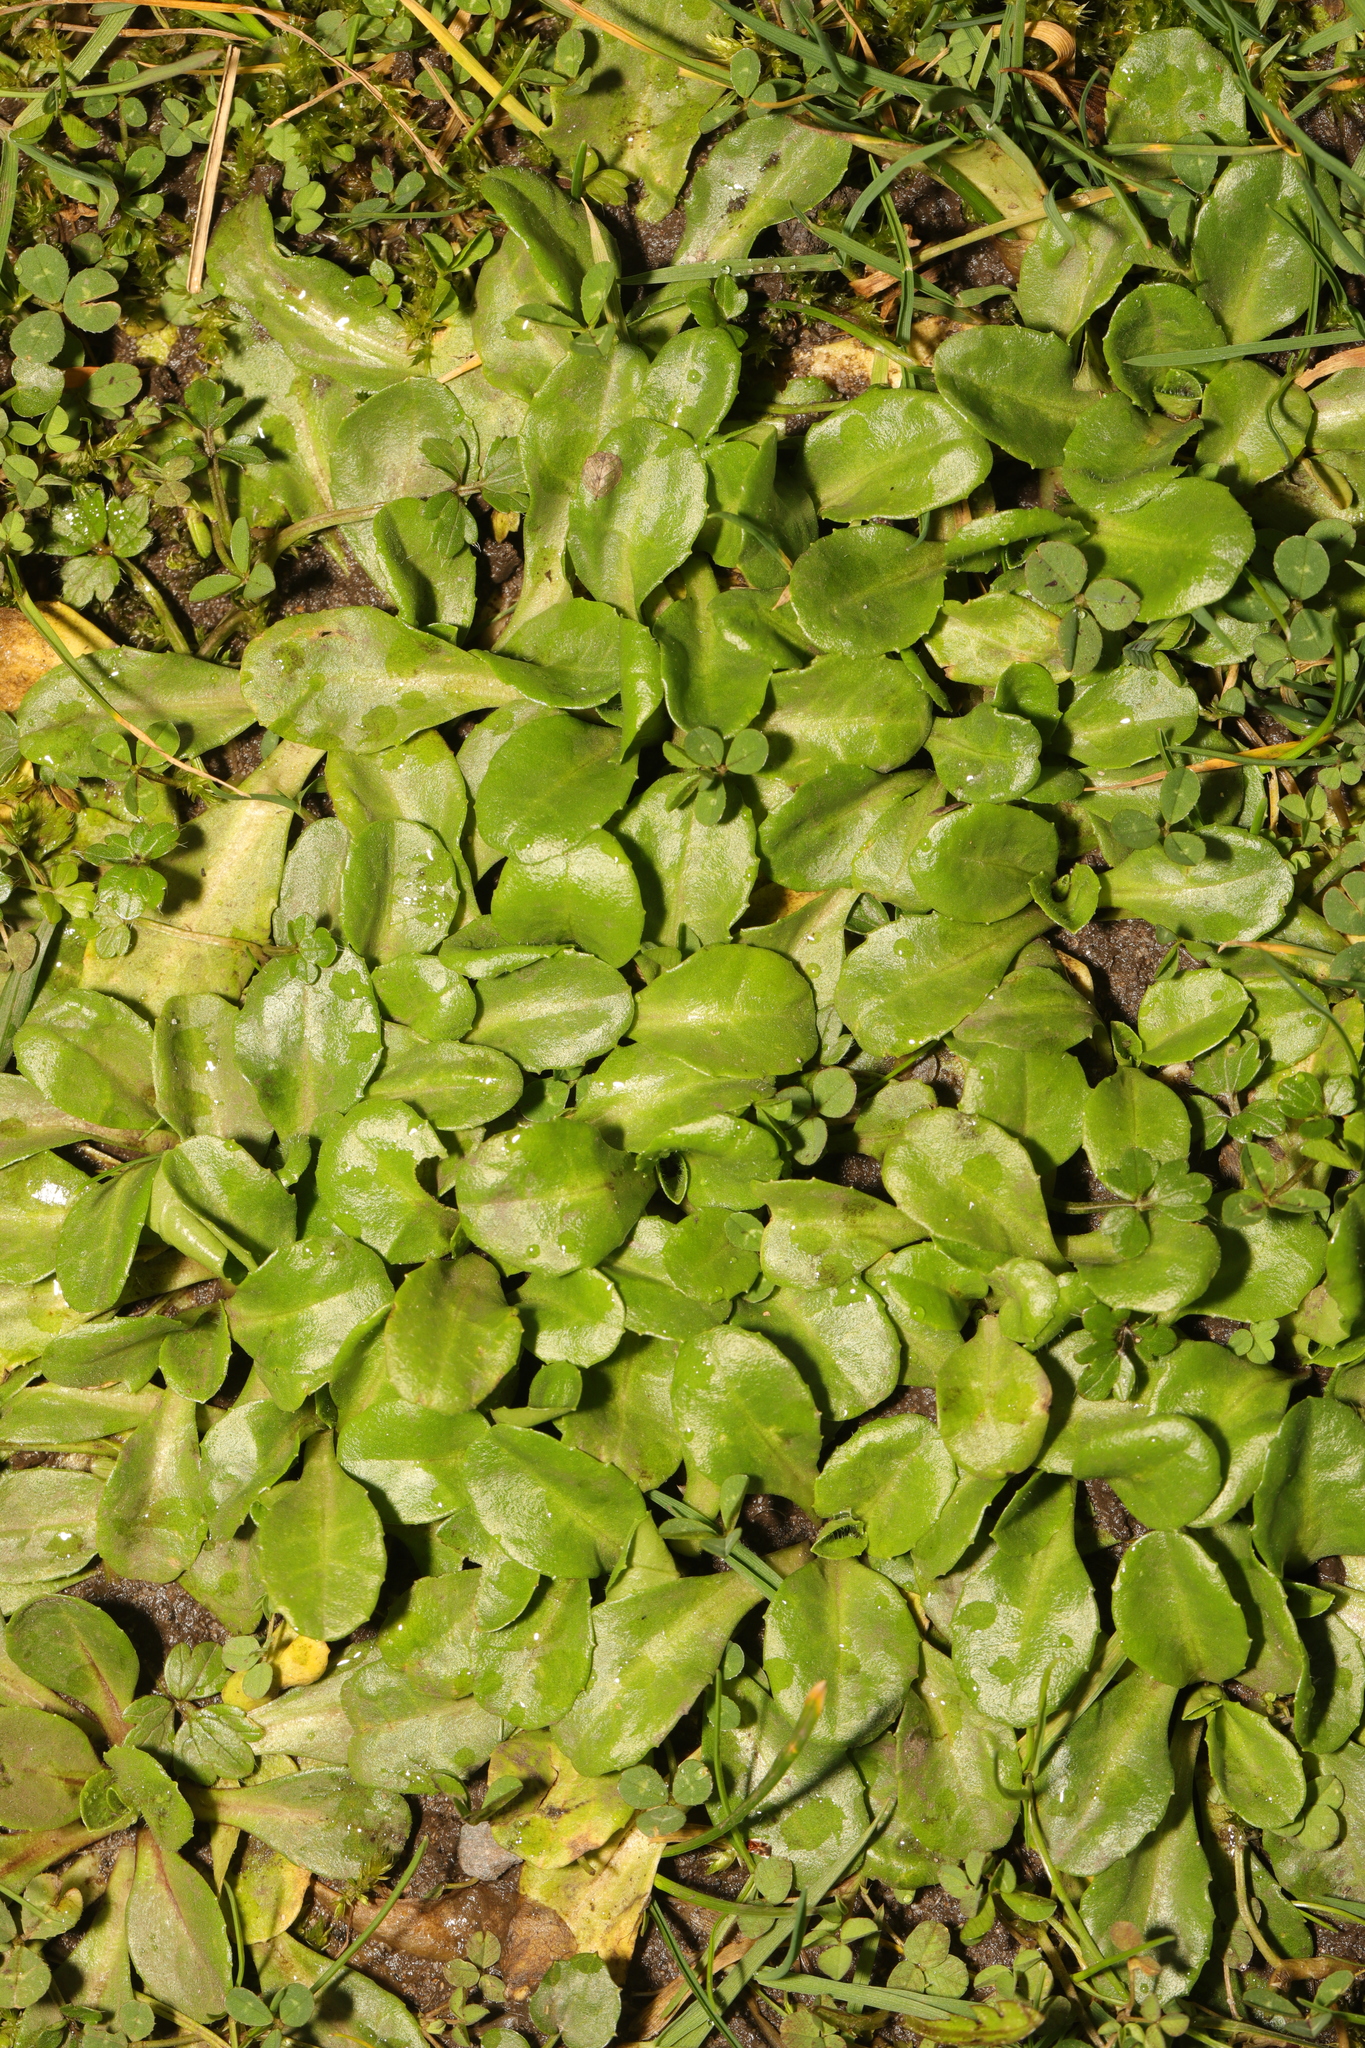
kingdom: Plantae
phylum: Tracheophyta
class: Magnoliopsida
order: Asterales
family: Asteraceae
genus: Bellis
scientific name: Bellis perennis
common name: Lawndaisy
